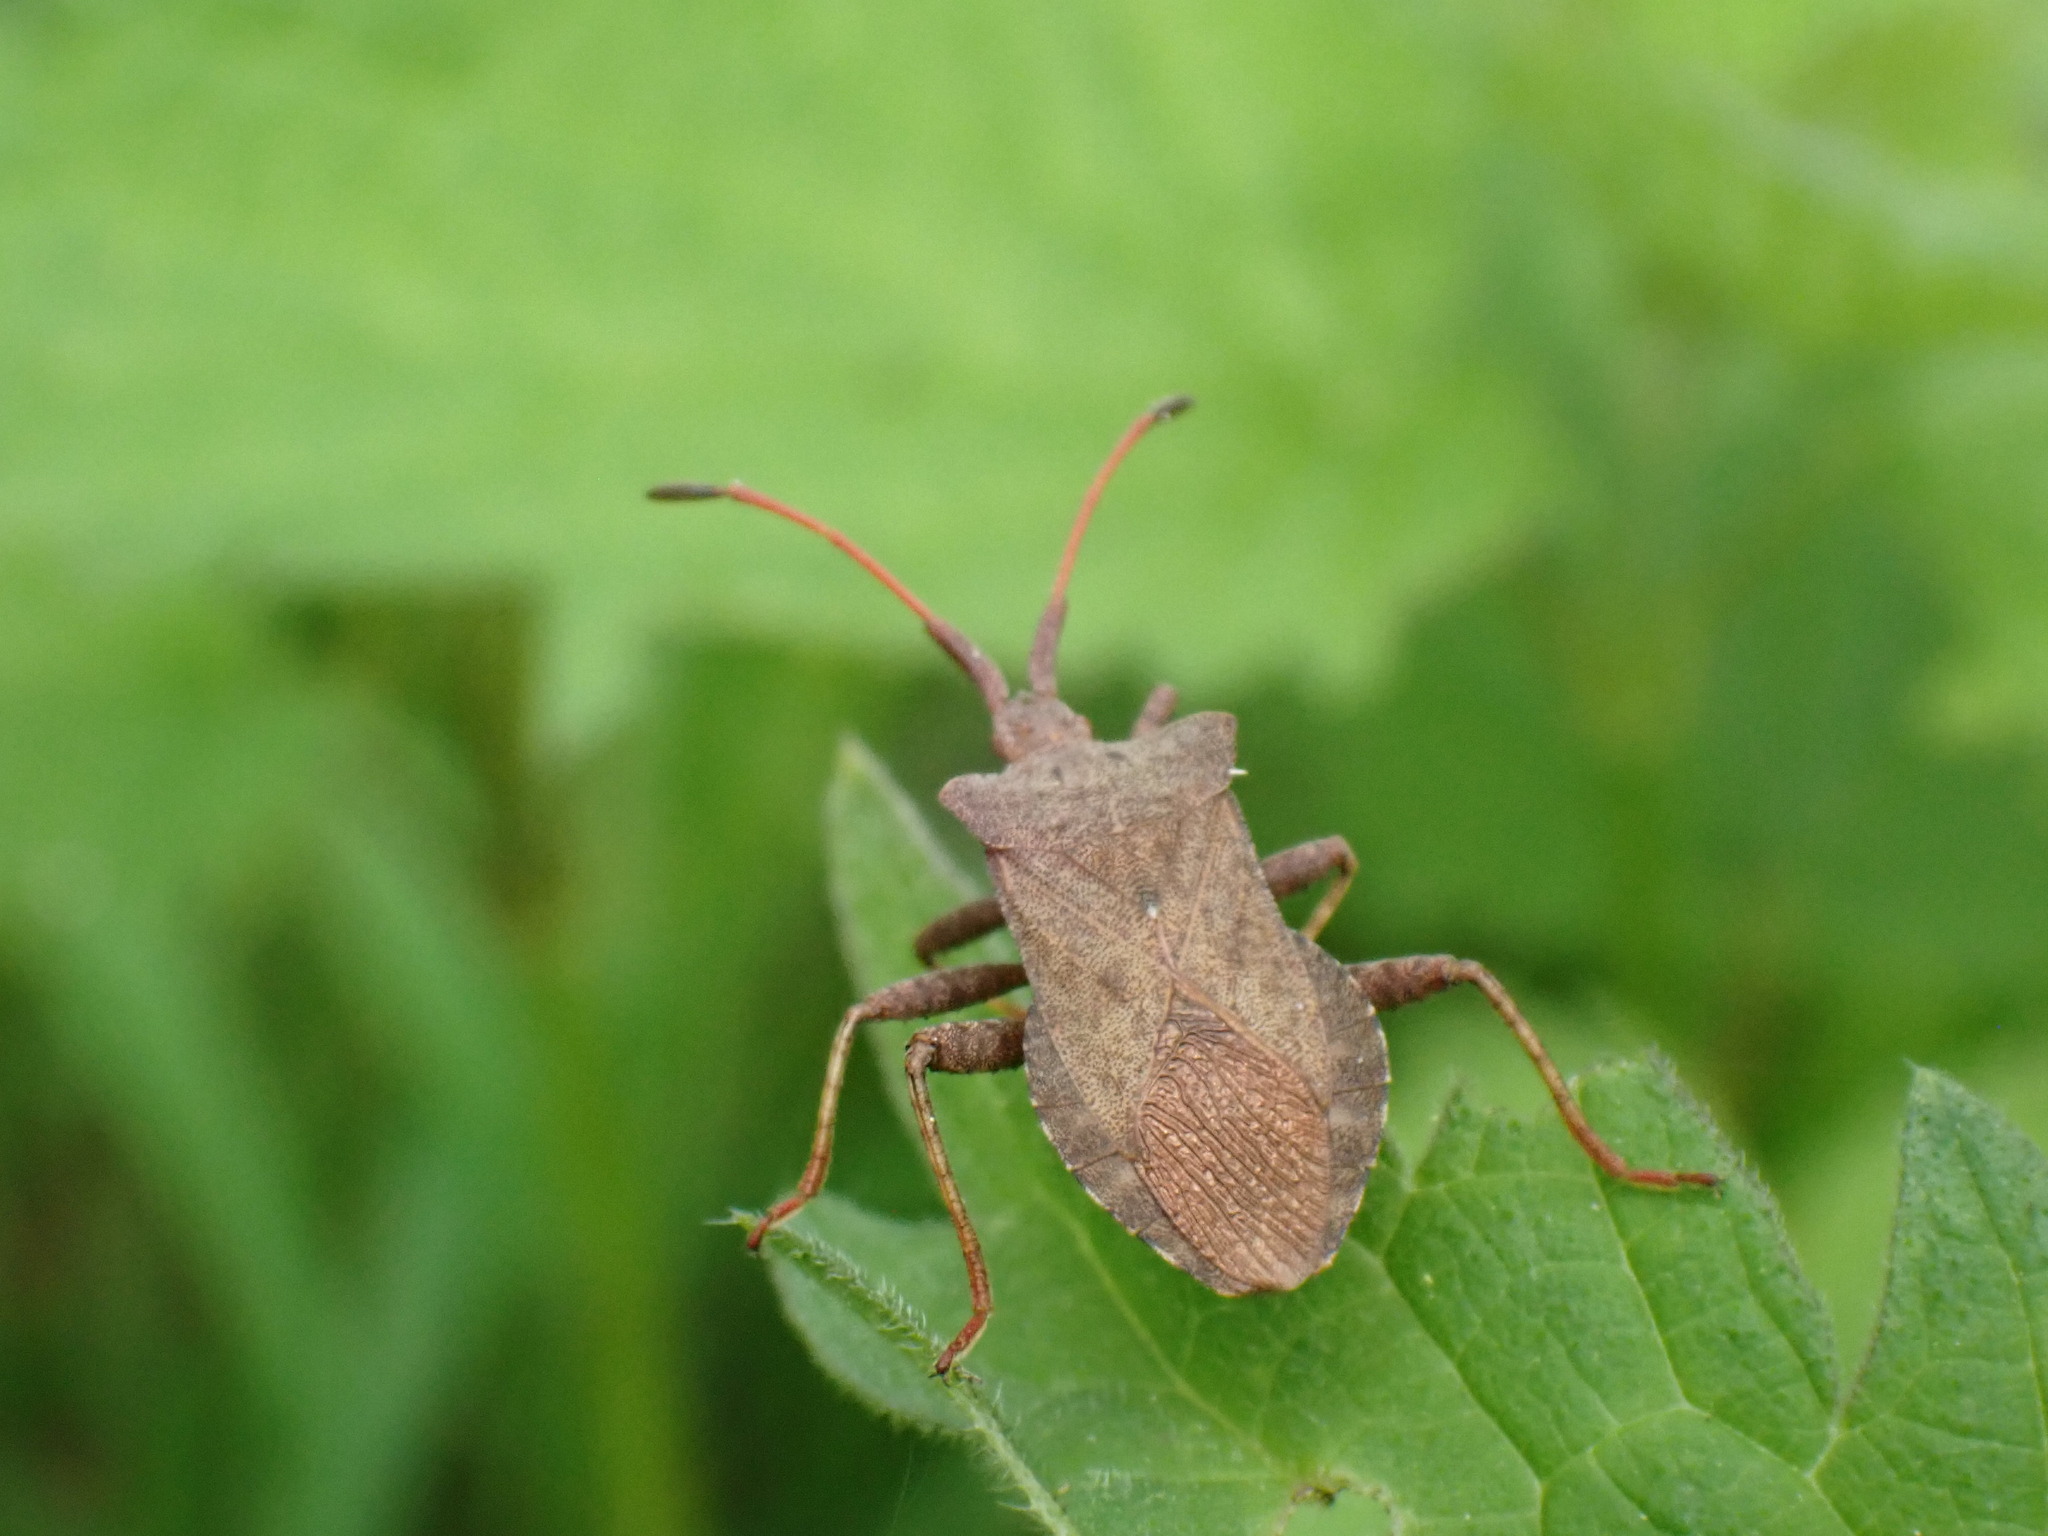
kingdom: Animalia
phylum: Arthropoda
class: Insecta
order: Hemiptera
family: Coreidae
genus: Coreus
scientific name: Coreus marginatus
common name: Dock bug
